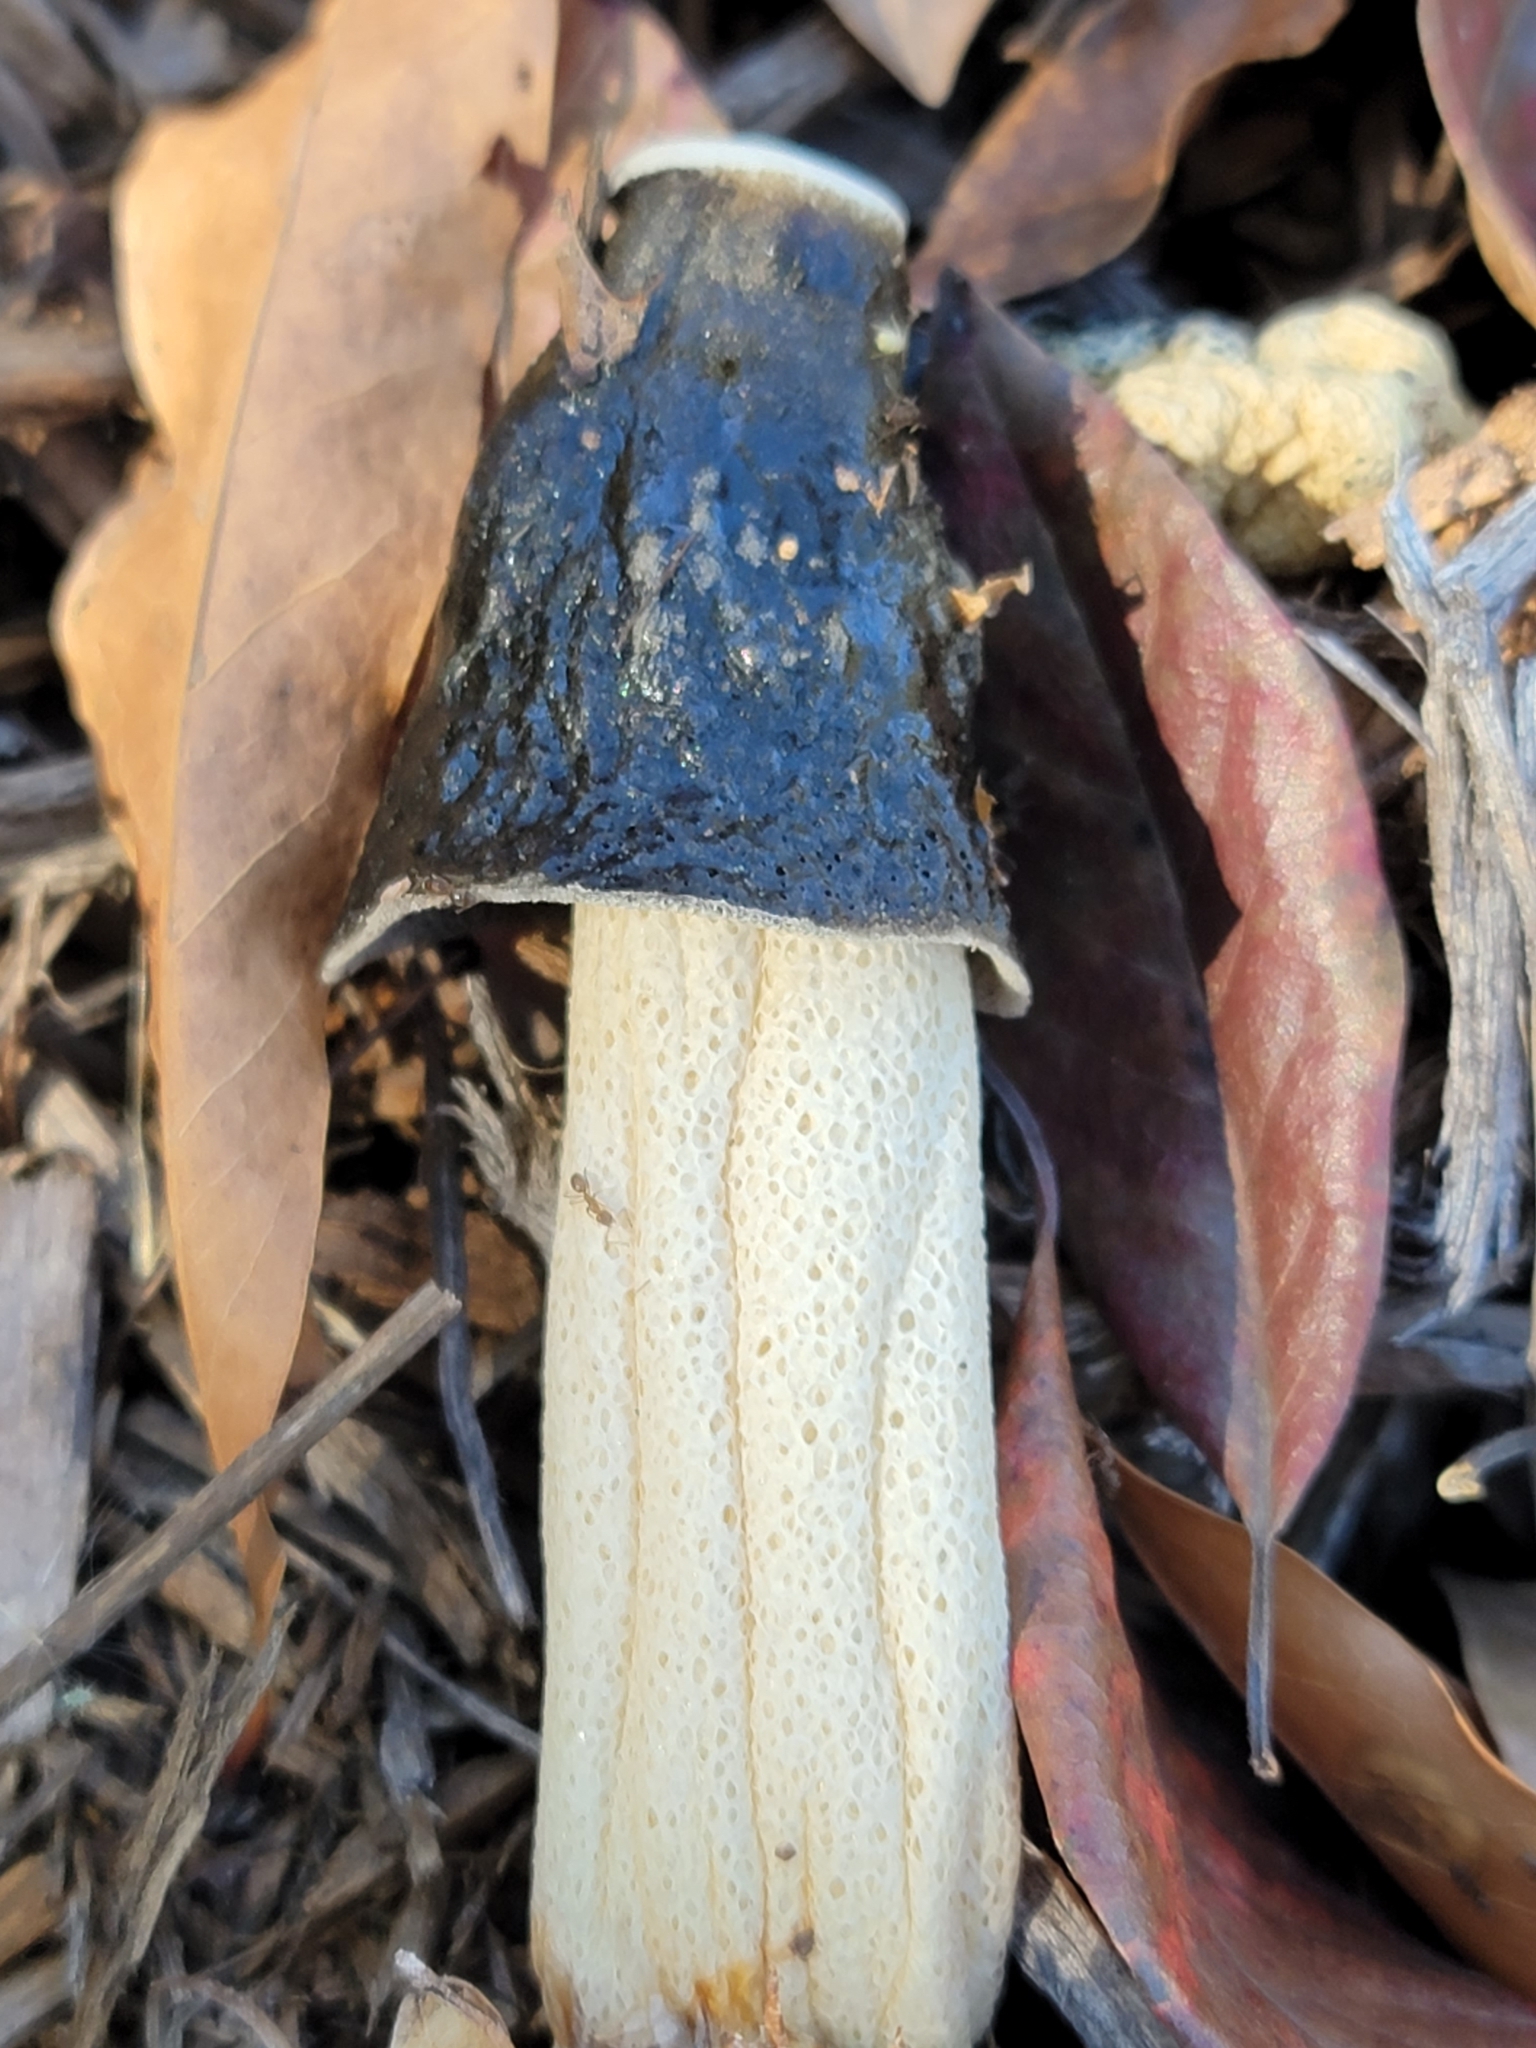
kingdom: Fungi
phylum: Basidiomycota
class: Agaricomycetes
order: Phallales
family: Phallaceae
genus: Phallus
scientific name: Phallus ravenelii
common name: Ravenel's stinkhorn
